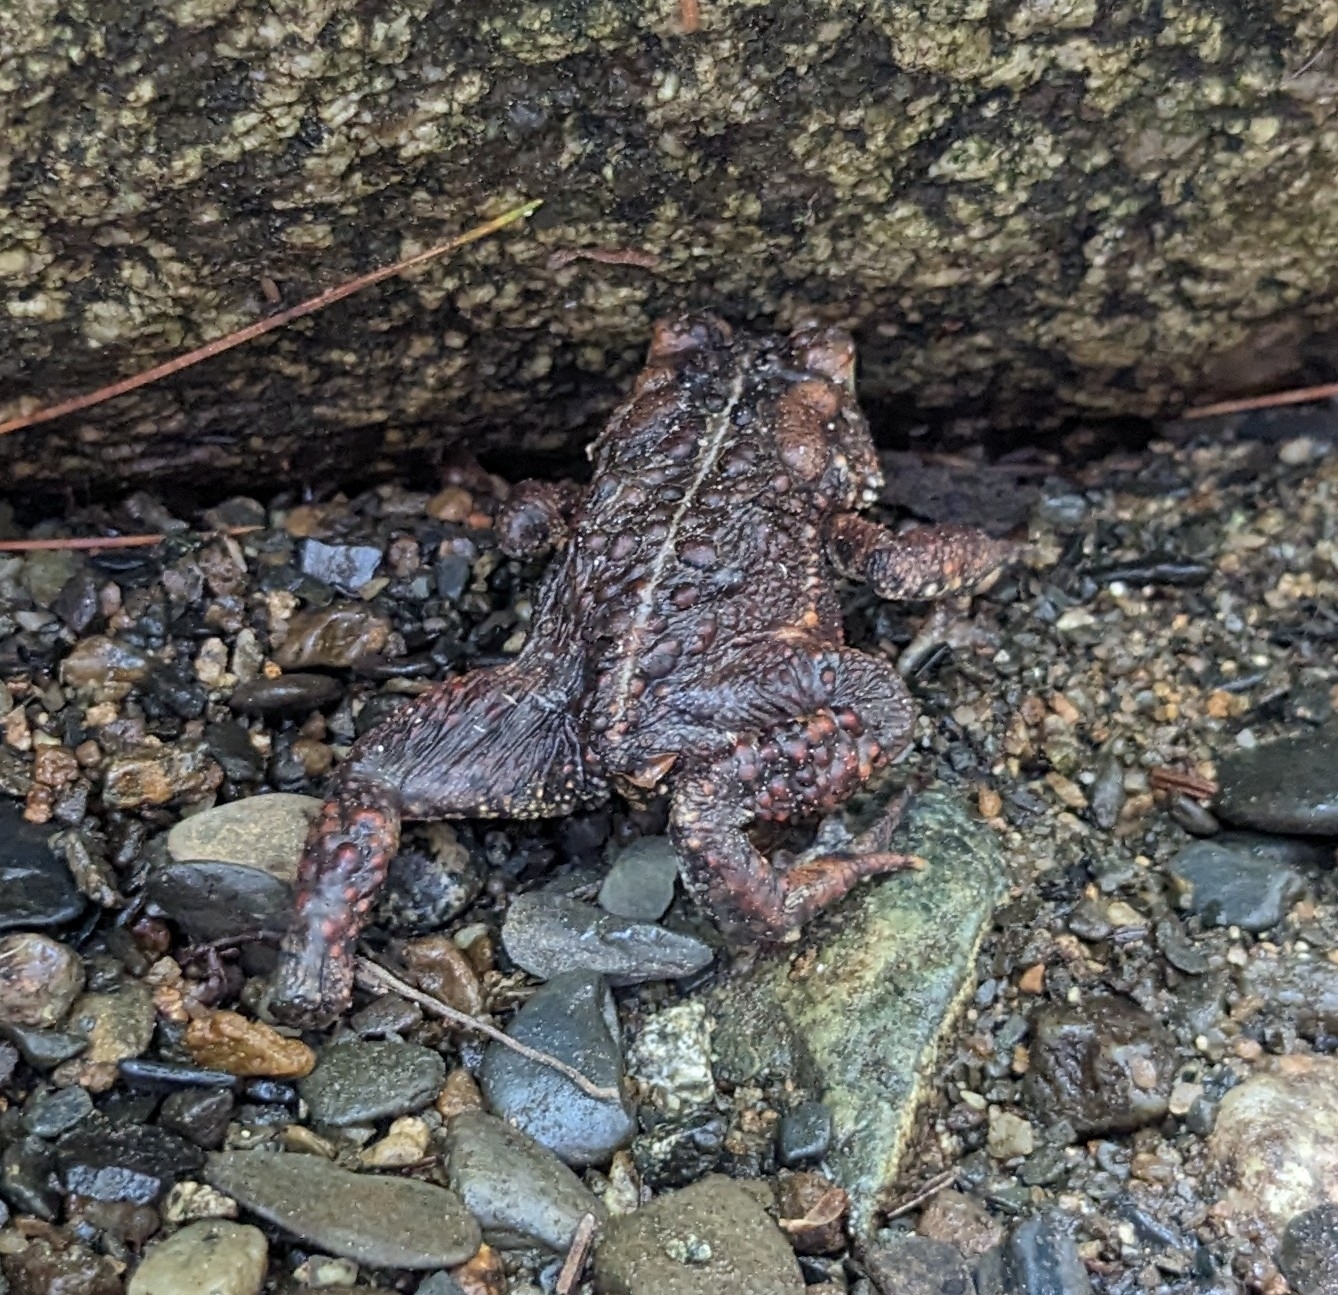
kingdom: Animalia
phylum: Chordata
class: Amphibia
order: Anura
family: Bufonidae
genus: Anaxyrus
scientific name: Anaxyrus americanus
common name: American toad
